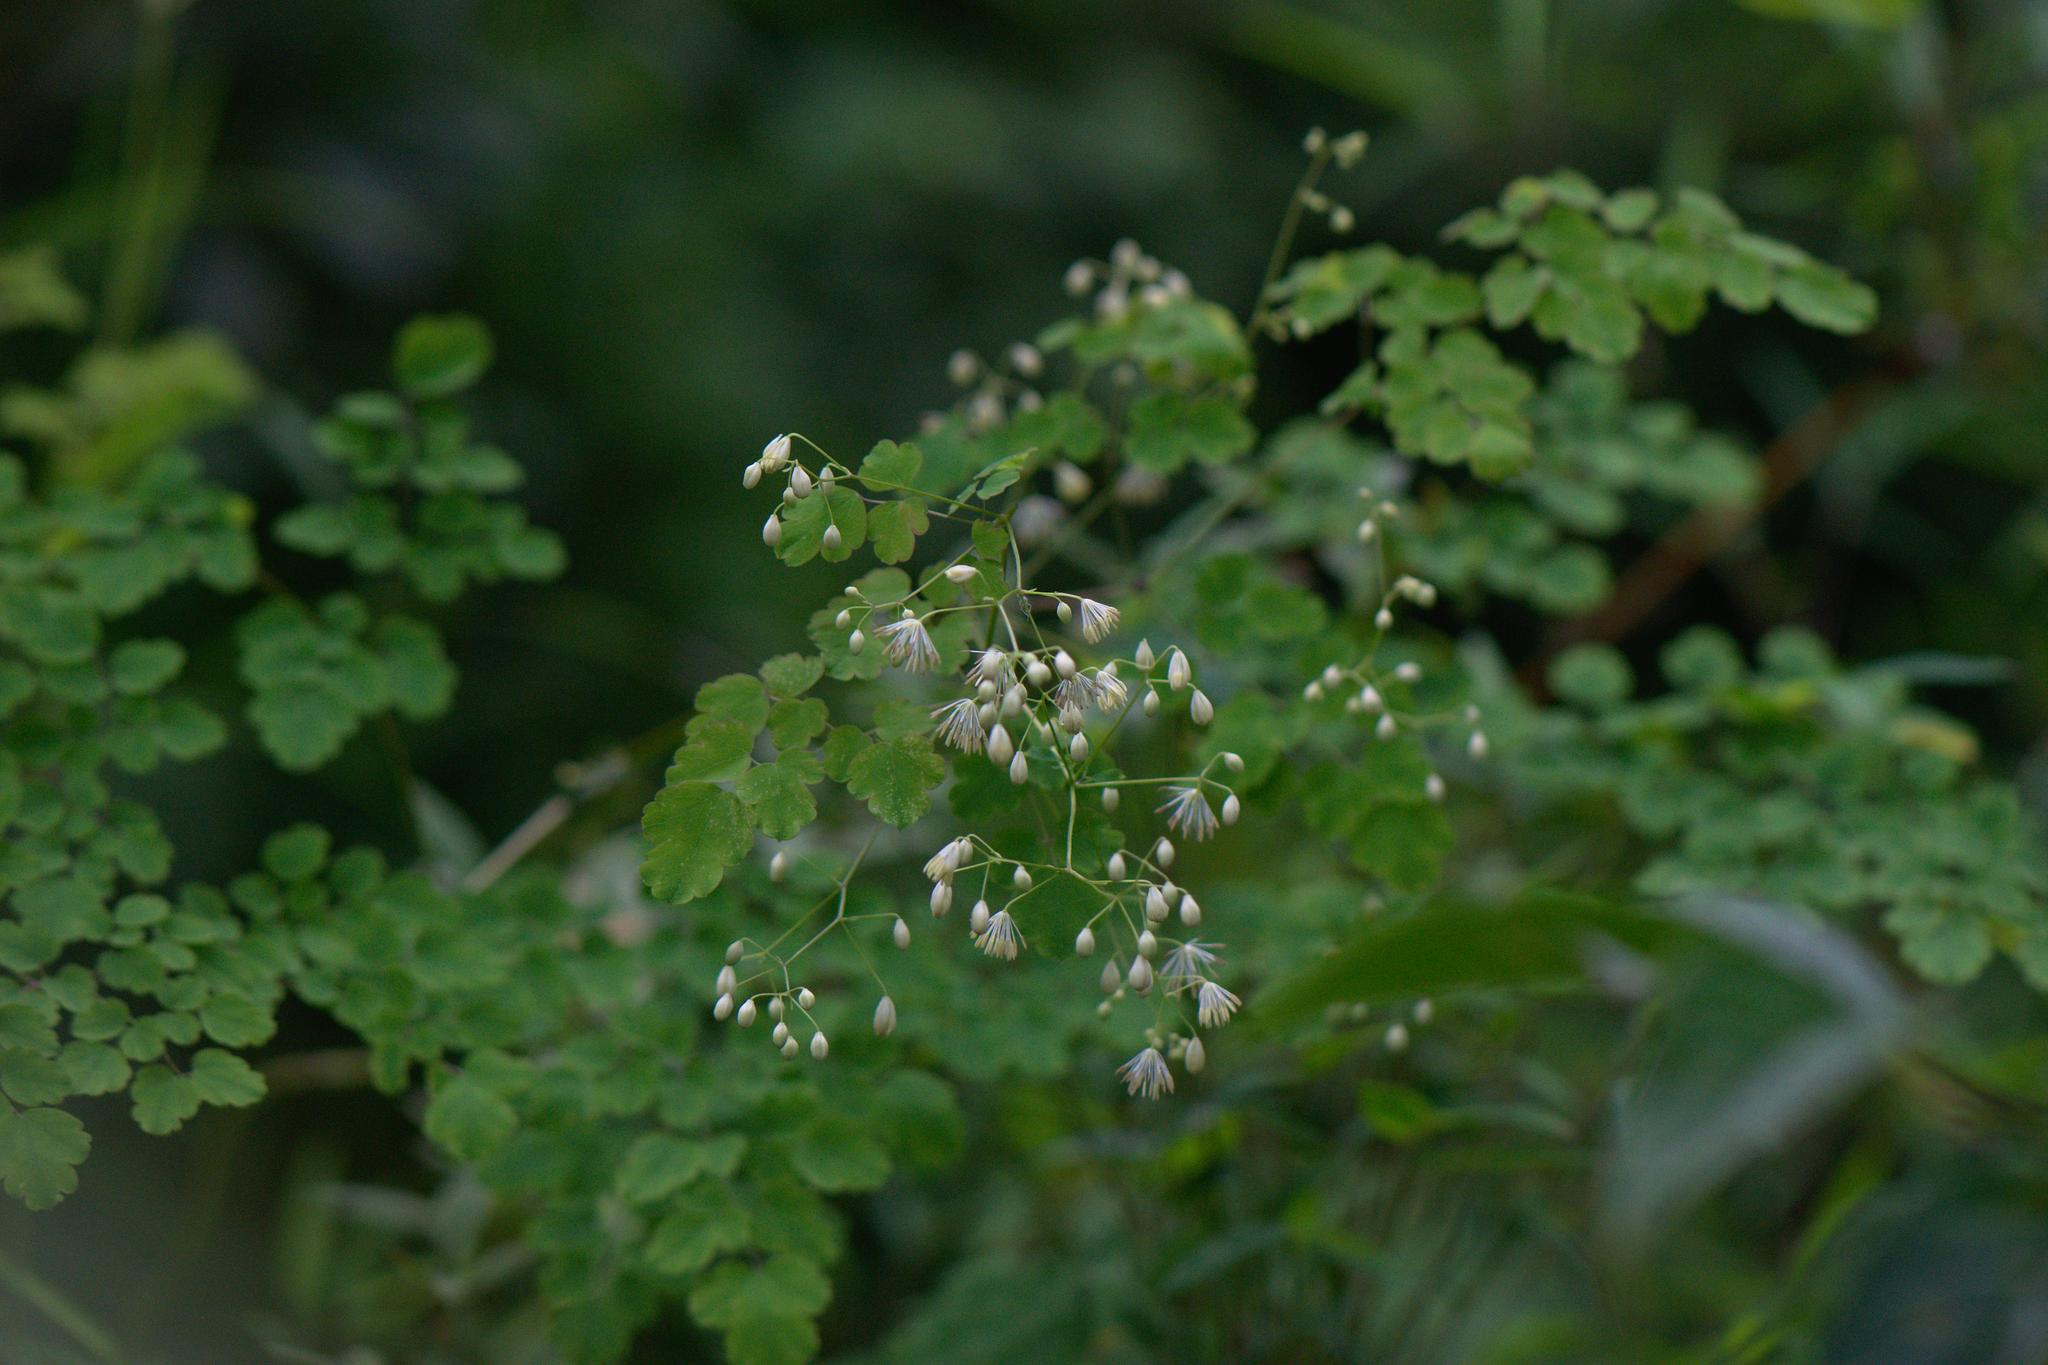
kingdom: Plantae
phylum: Tracheophyta
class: Magnoliopsida
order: Ranunculales
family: Ranunculaceae
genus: Thalictrum
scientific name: Thalictrum foliolosum
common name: Asian meadow-rue
